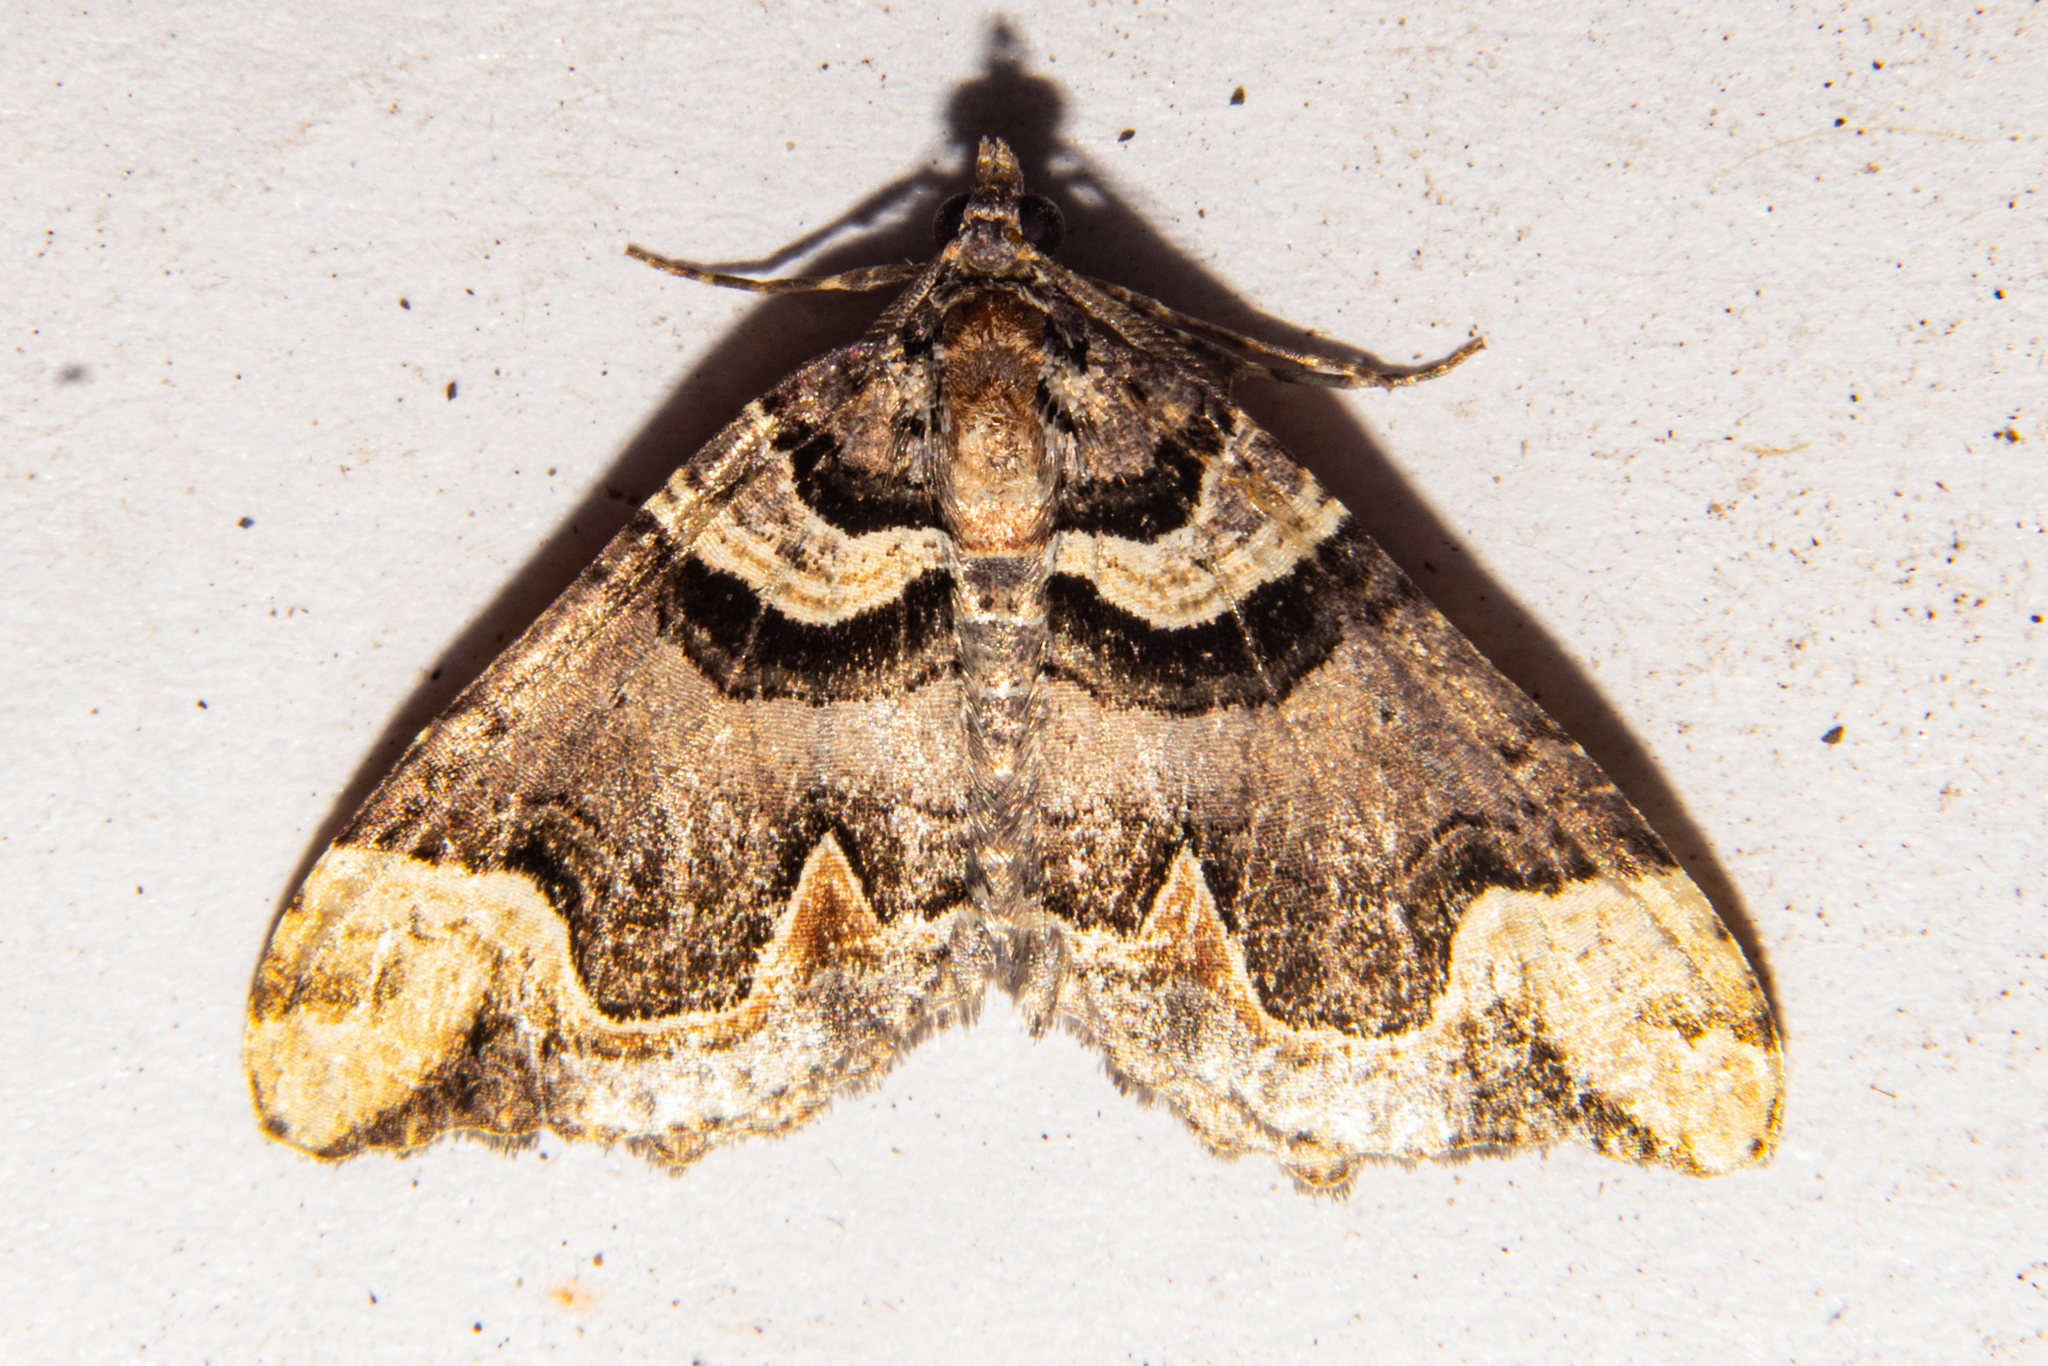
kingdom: Animalia
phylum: Arthropoda
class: Insecta
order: Lepidoptera
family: Geometridae
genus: Asaphodes
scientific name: Asaphodes chlamydota
